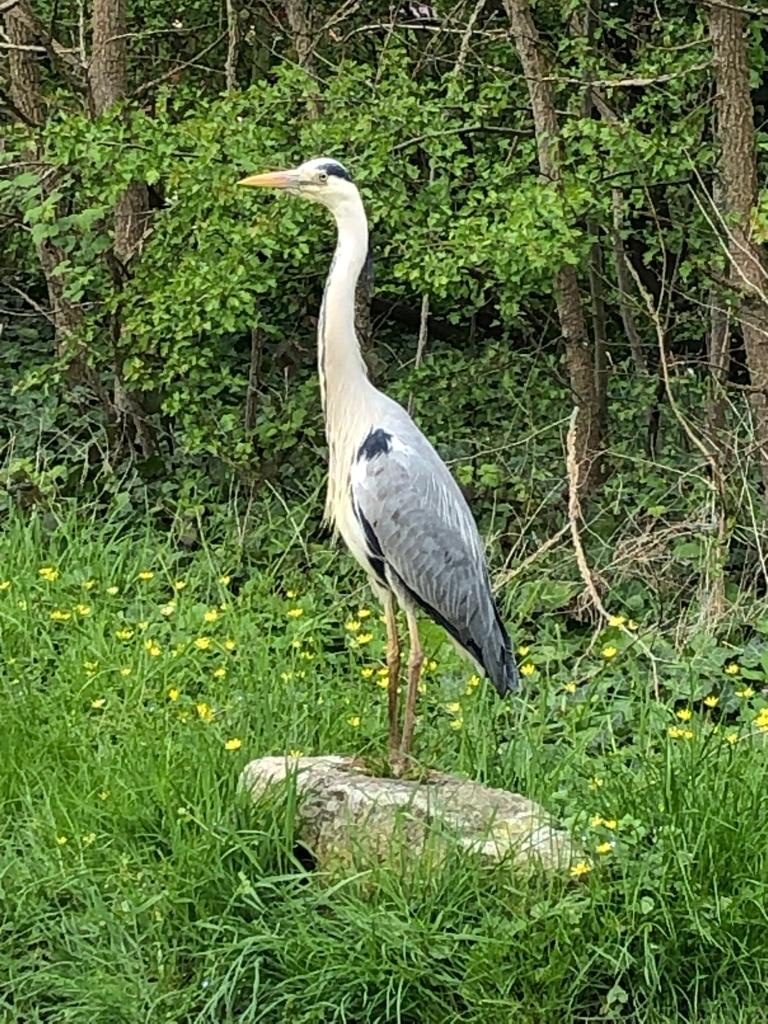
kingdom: Animalia
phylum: Chordata
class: Aves
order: Pelecaniformes
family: Ardeidae
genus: Ardea
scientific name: Ardea cinerea
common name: Grey heron
